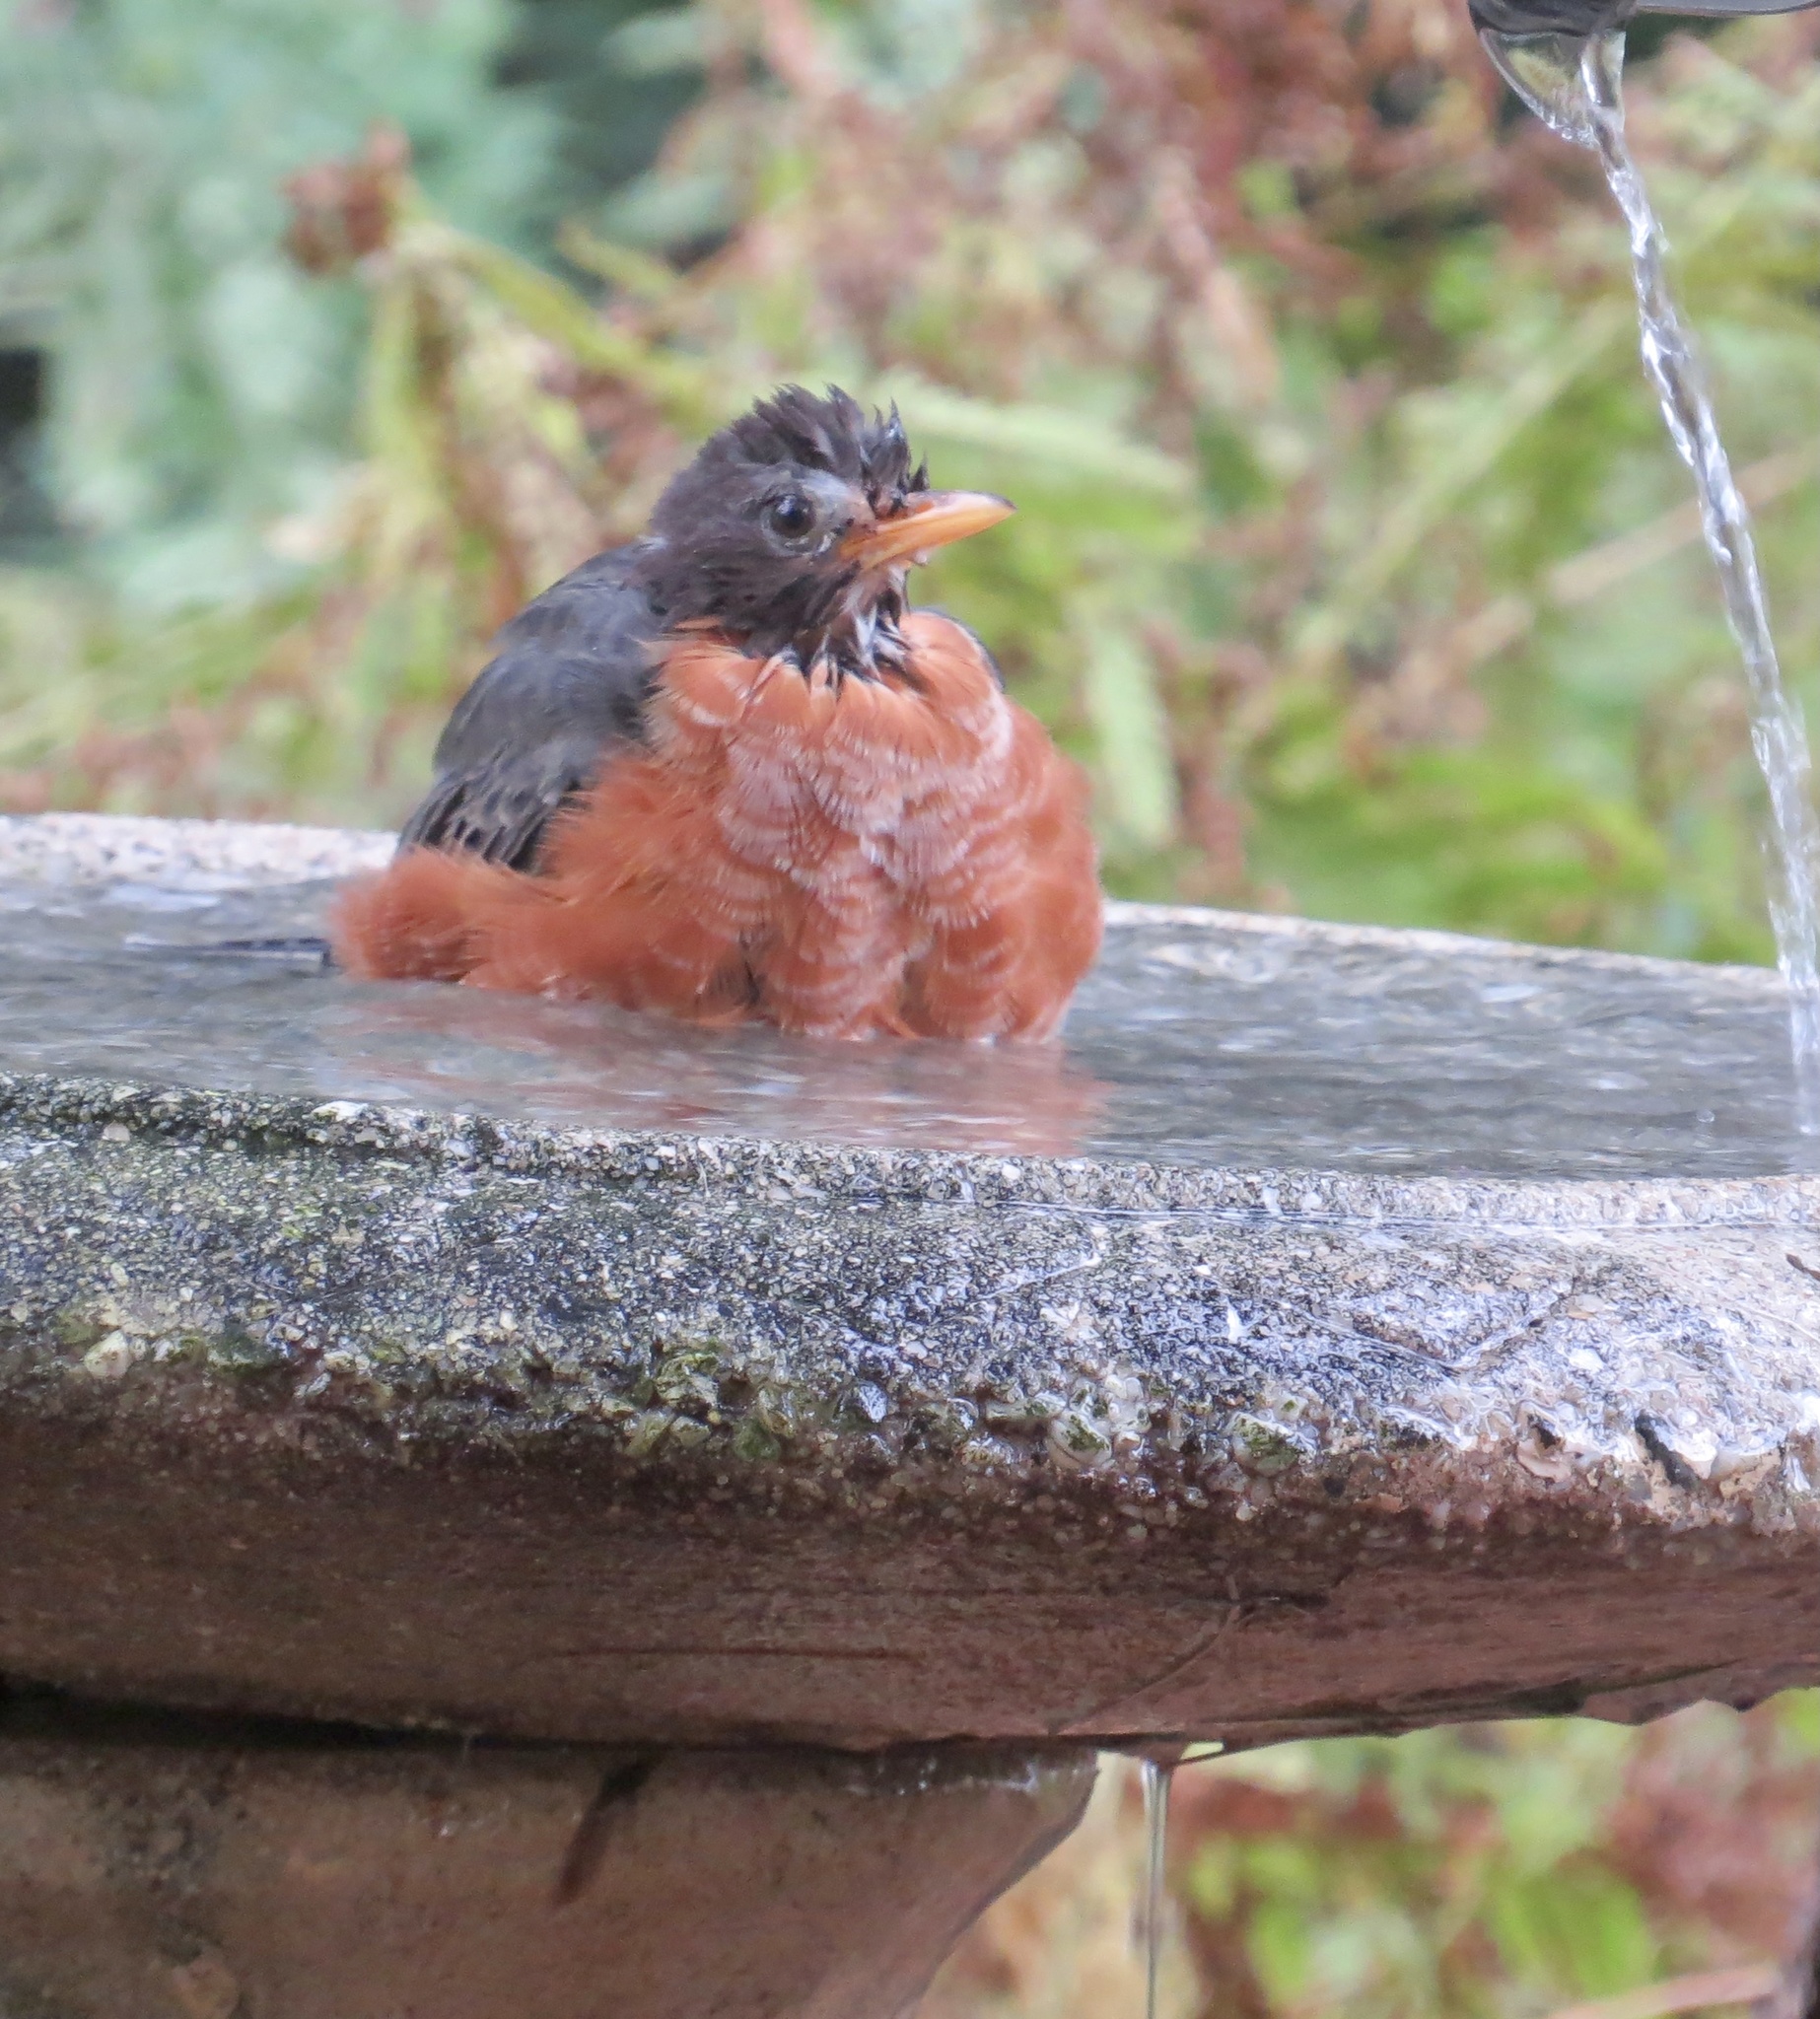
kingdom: Animalia
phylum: Chordata
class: Aves
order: Passeriformes
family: Turdidae
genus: Turdus
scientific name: Turdus migratorius
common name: American robin
